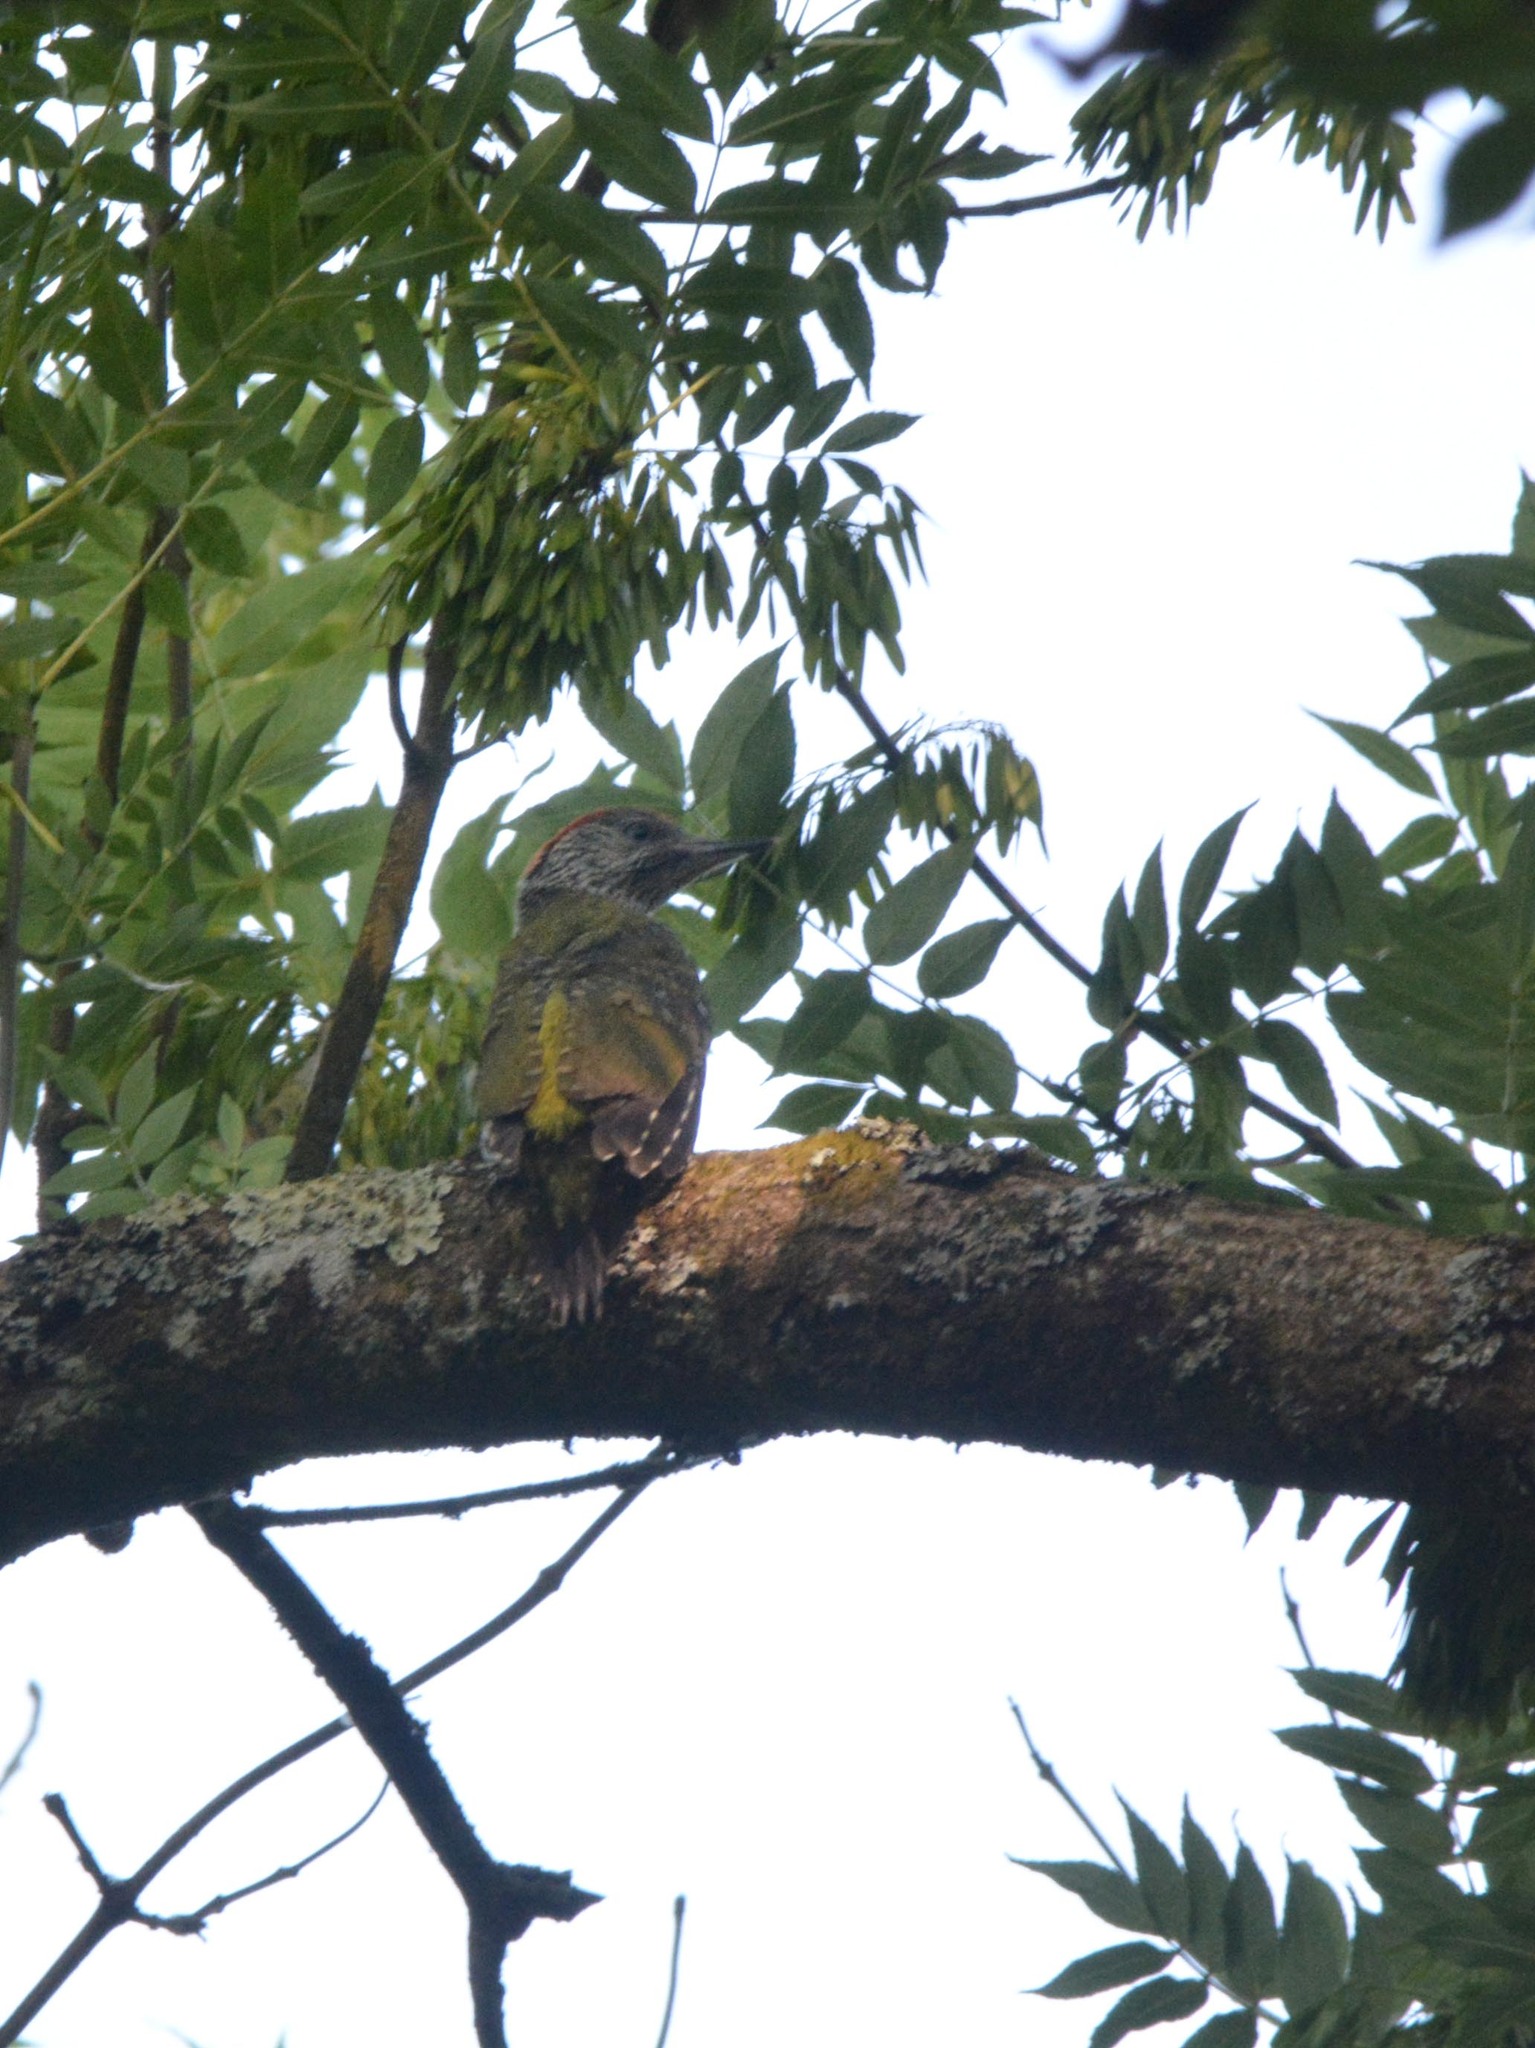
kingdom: Animalia
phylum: Chordata
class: Aves
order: Piciformes
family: Picidae
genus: Picus
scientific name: Picus viridis
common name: European green woodpecker
